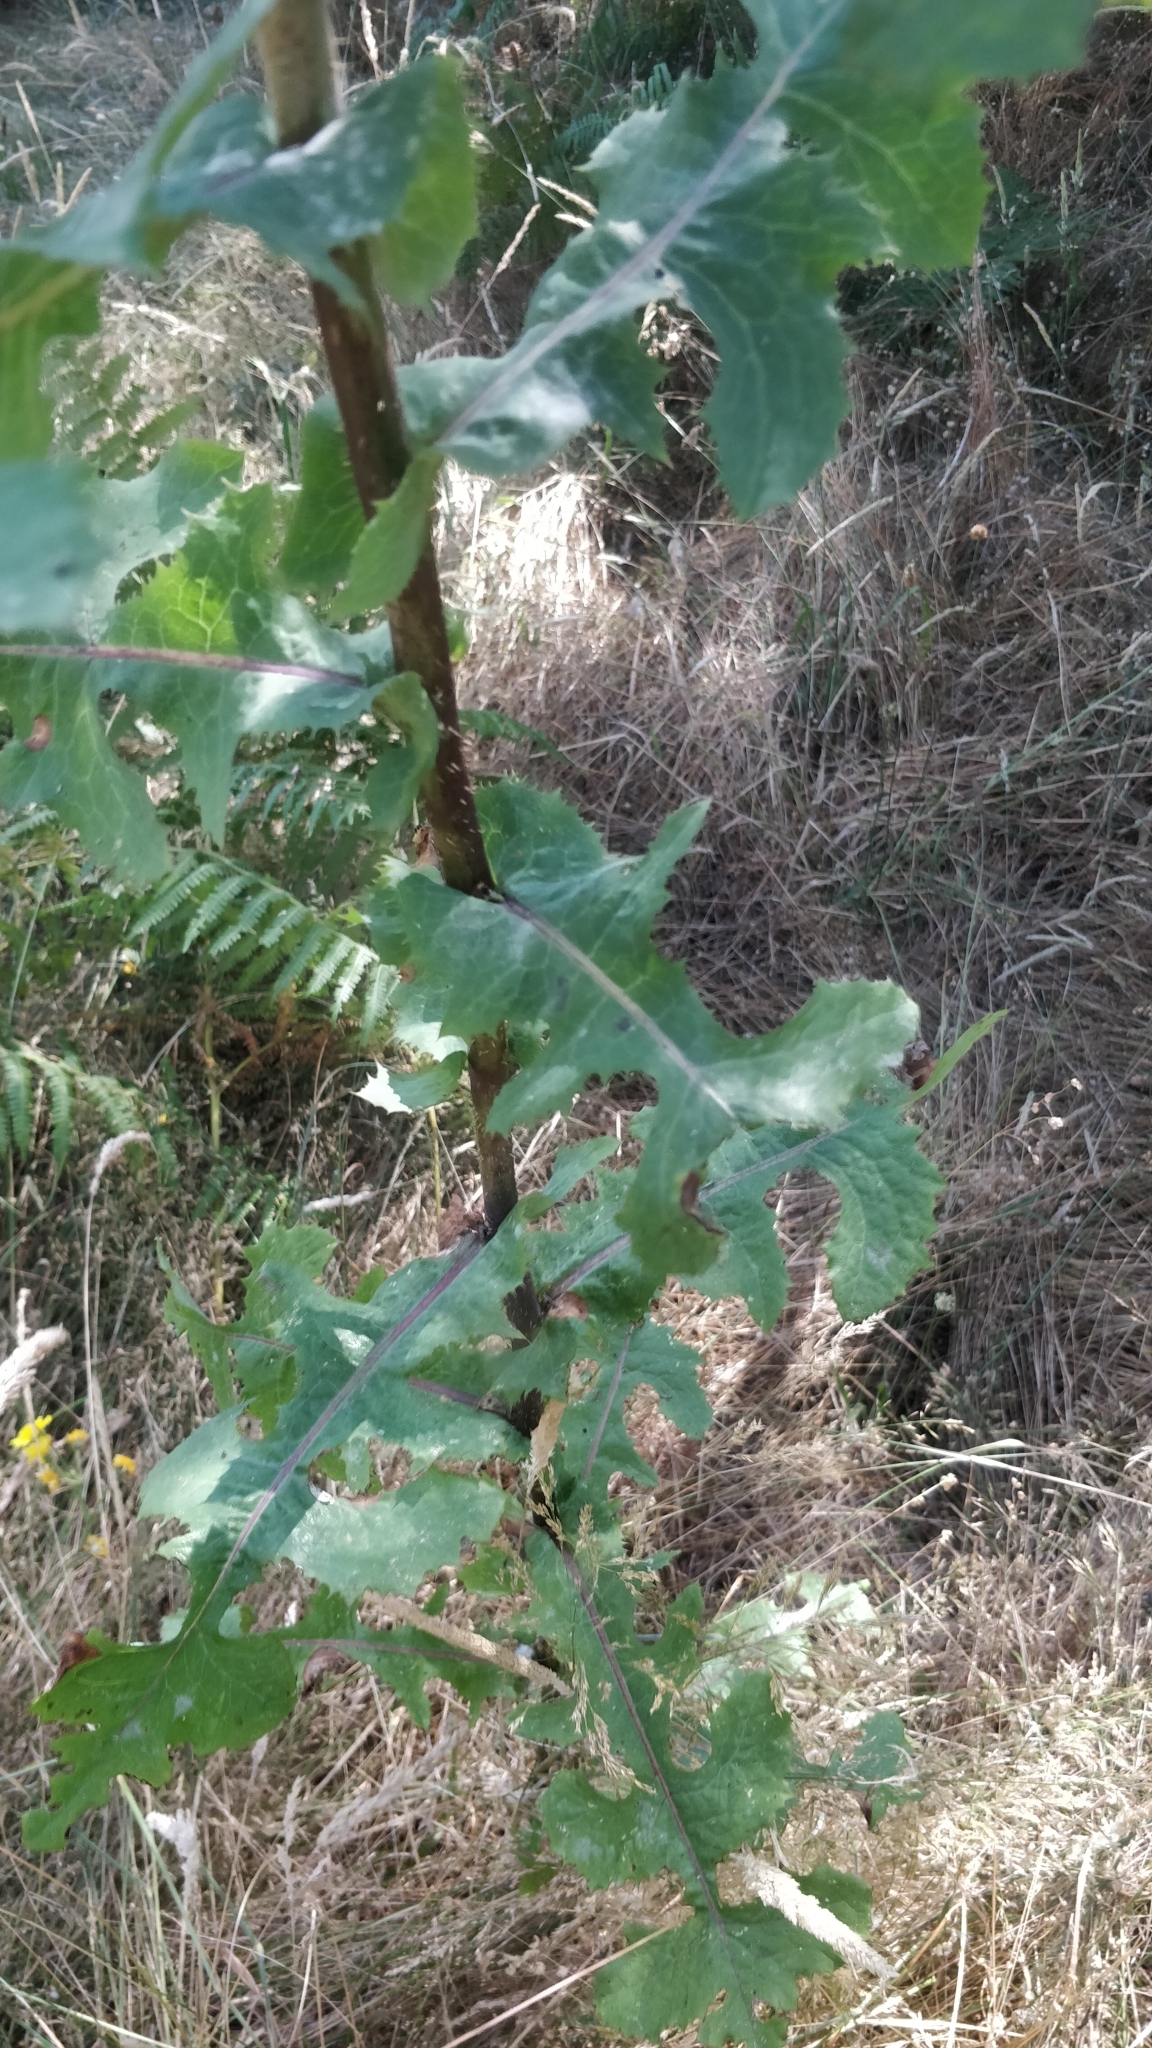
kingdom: Plantae
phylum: Tracheophyta
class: Magnoliopsida
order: Asterales
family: Asteraceae
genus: Lactuca
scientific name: Lactuca serriola
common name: Prickly lettuce
